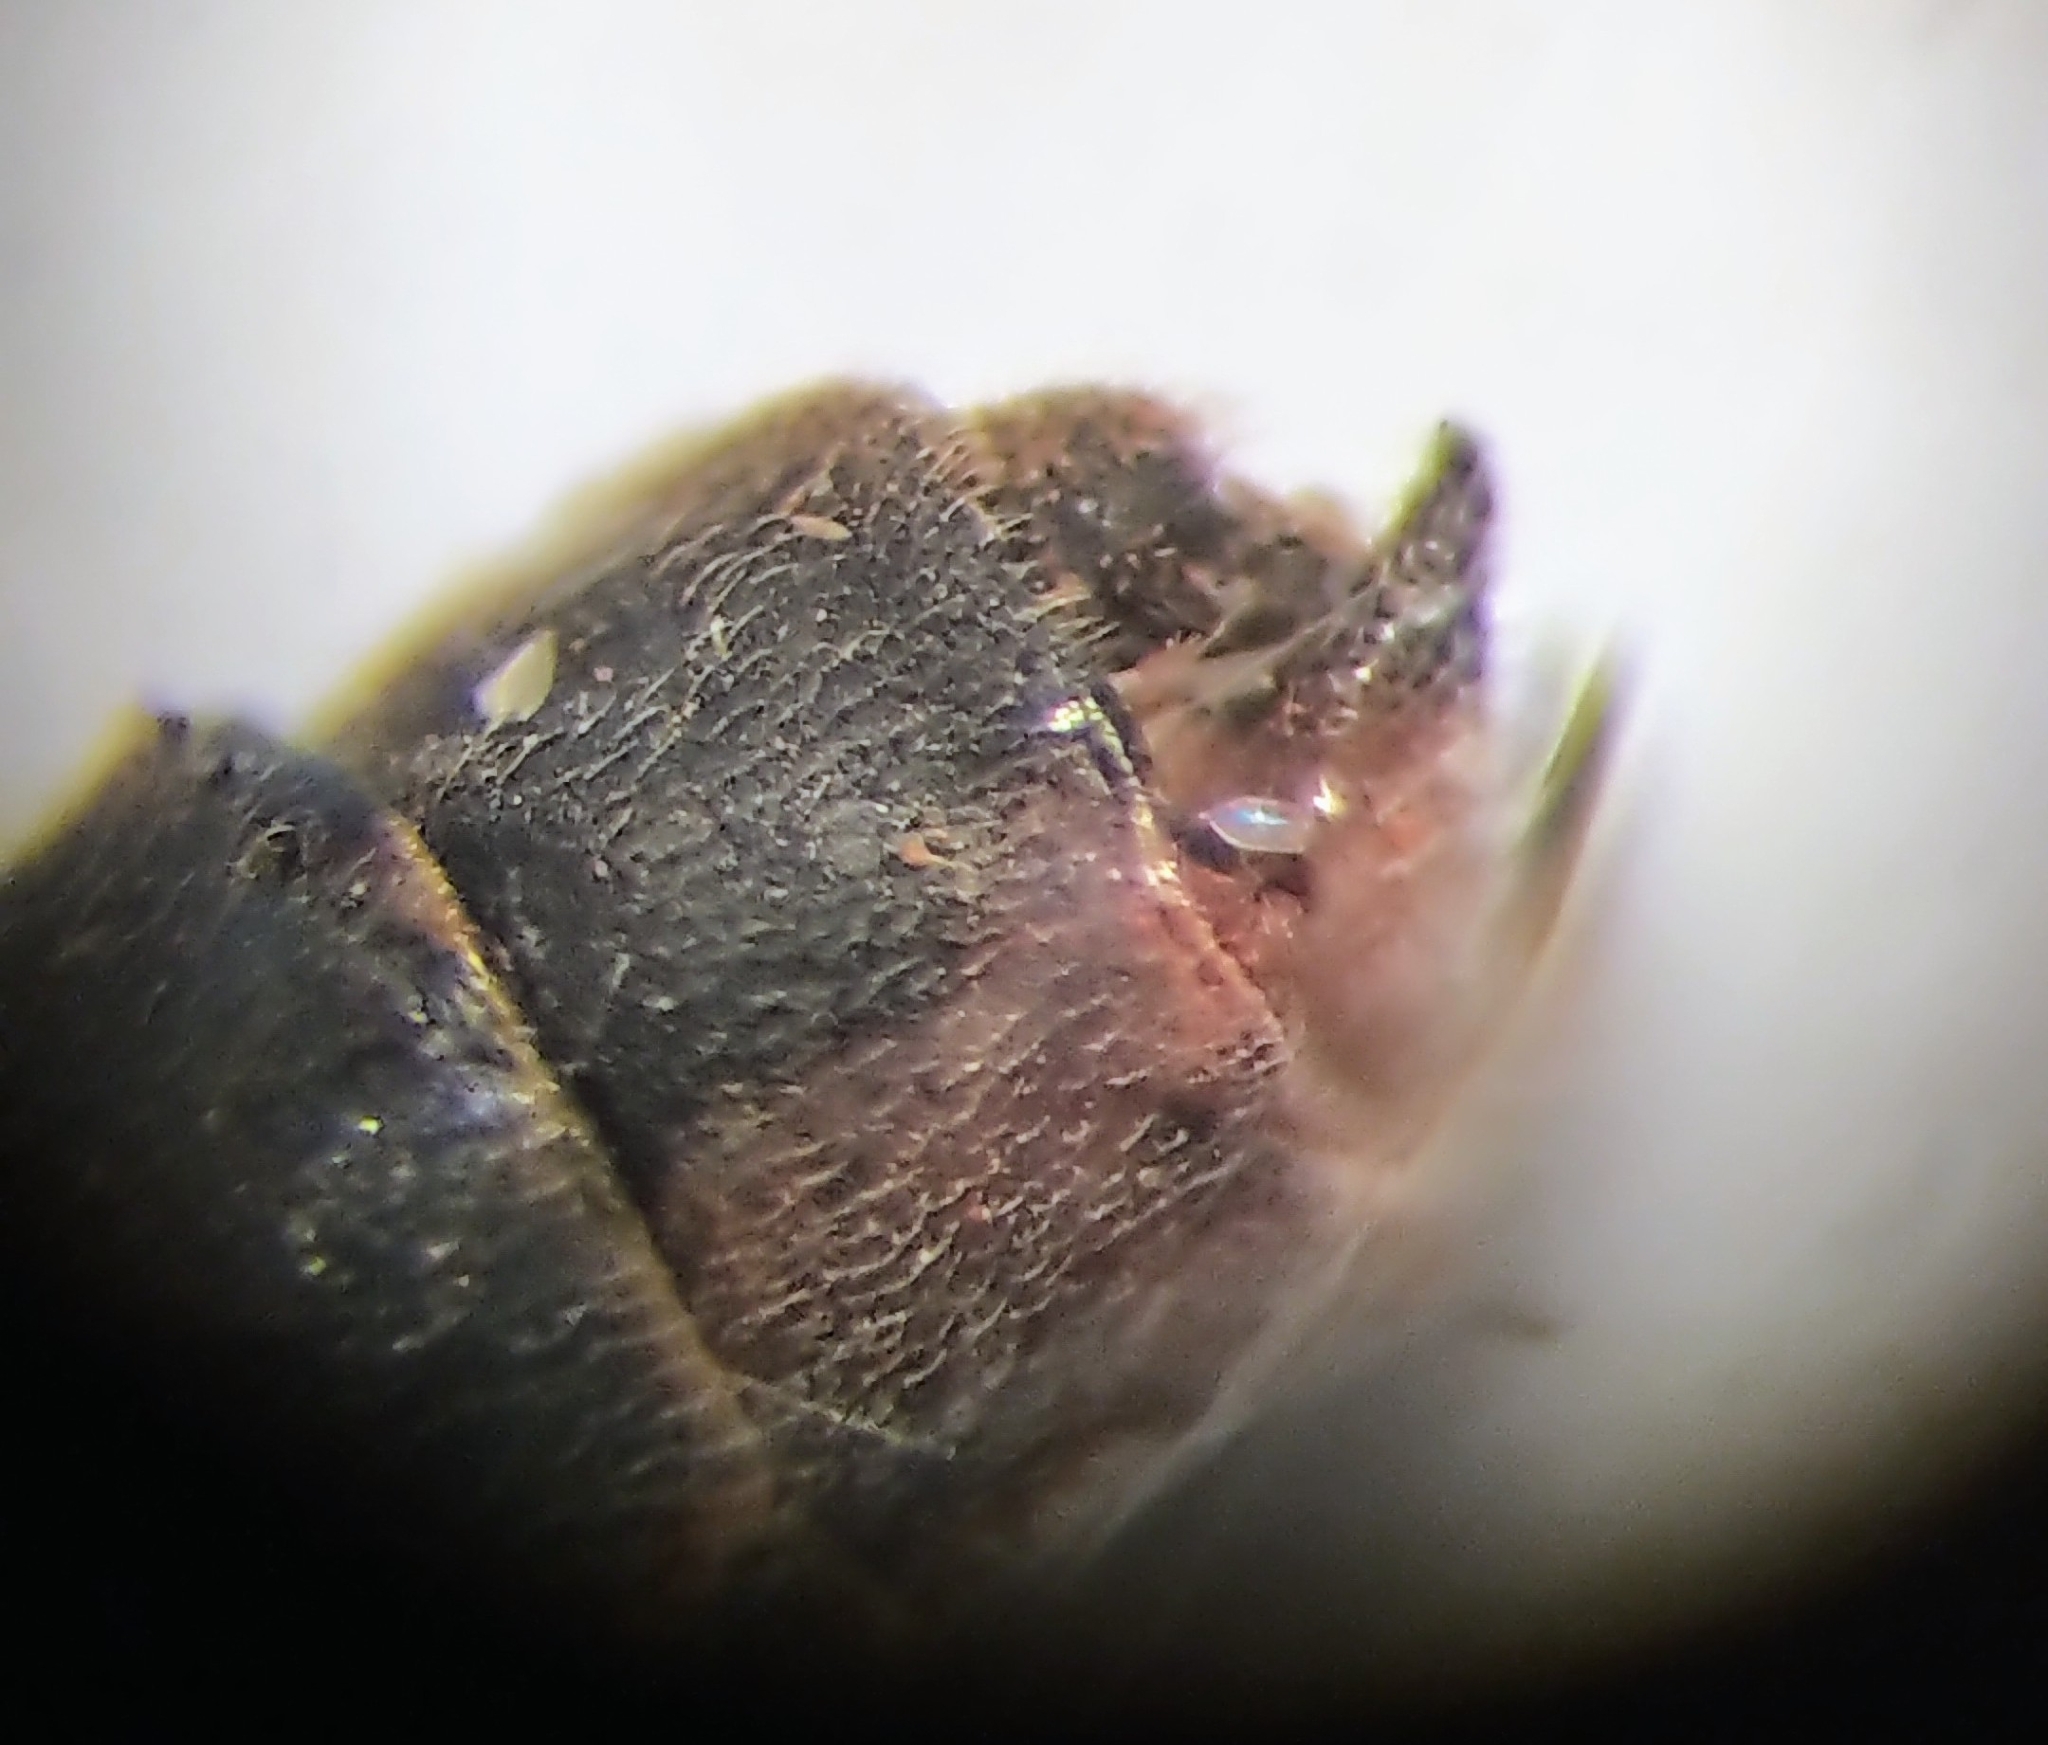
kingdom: Animalia
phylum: Arthropoda
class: Insecta
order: Odonata
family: Coenagrionidae
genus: Enallagma
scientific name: Enallagma annexum
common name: Northern bluet
